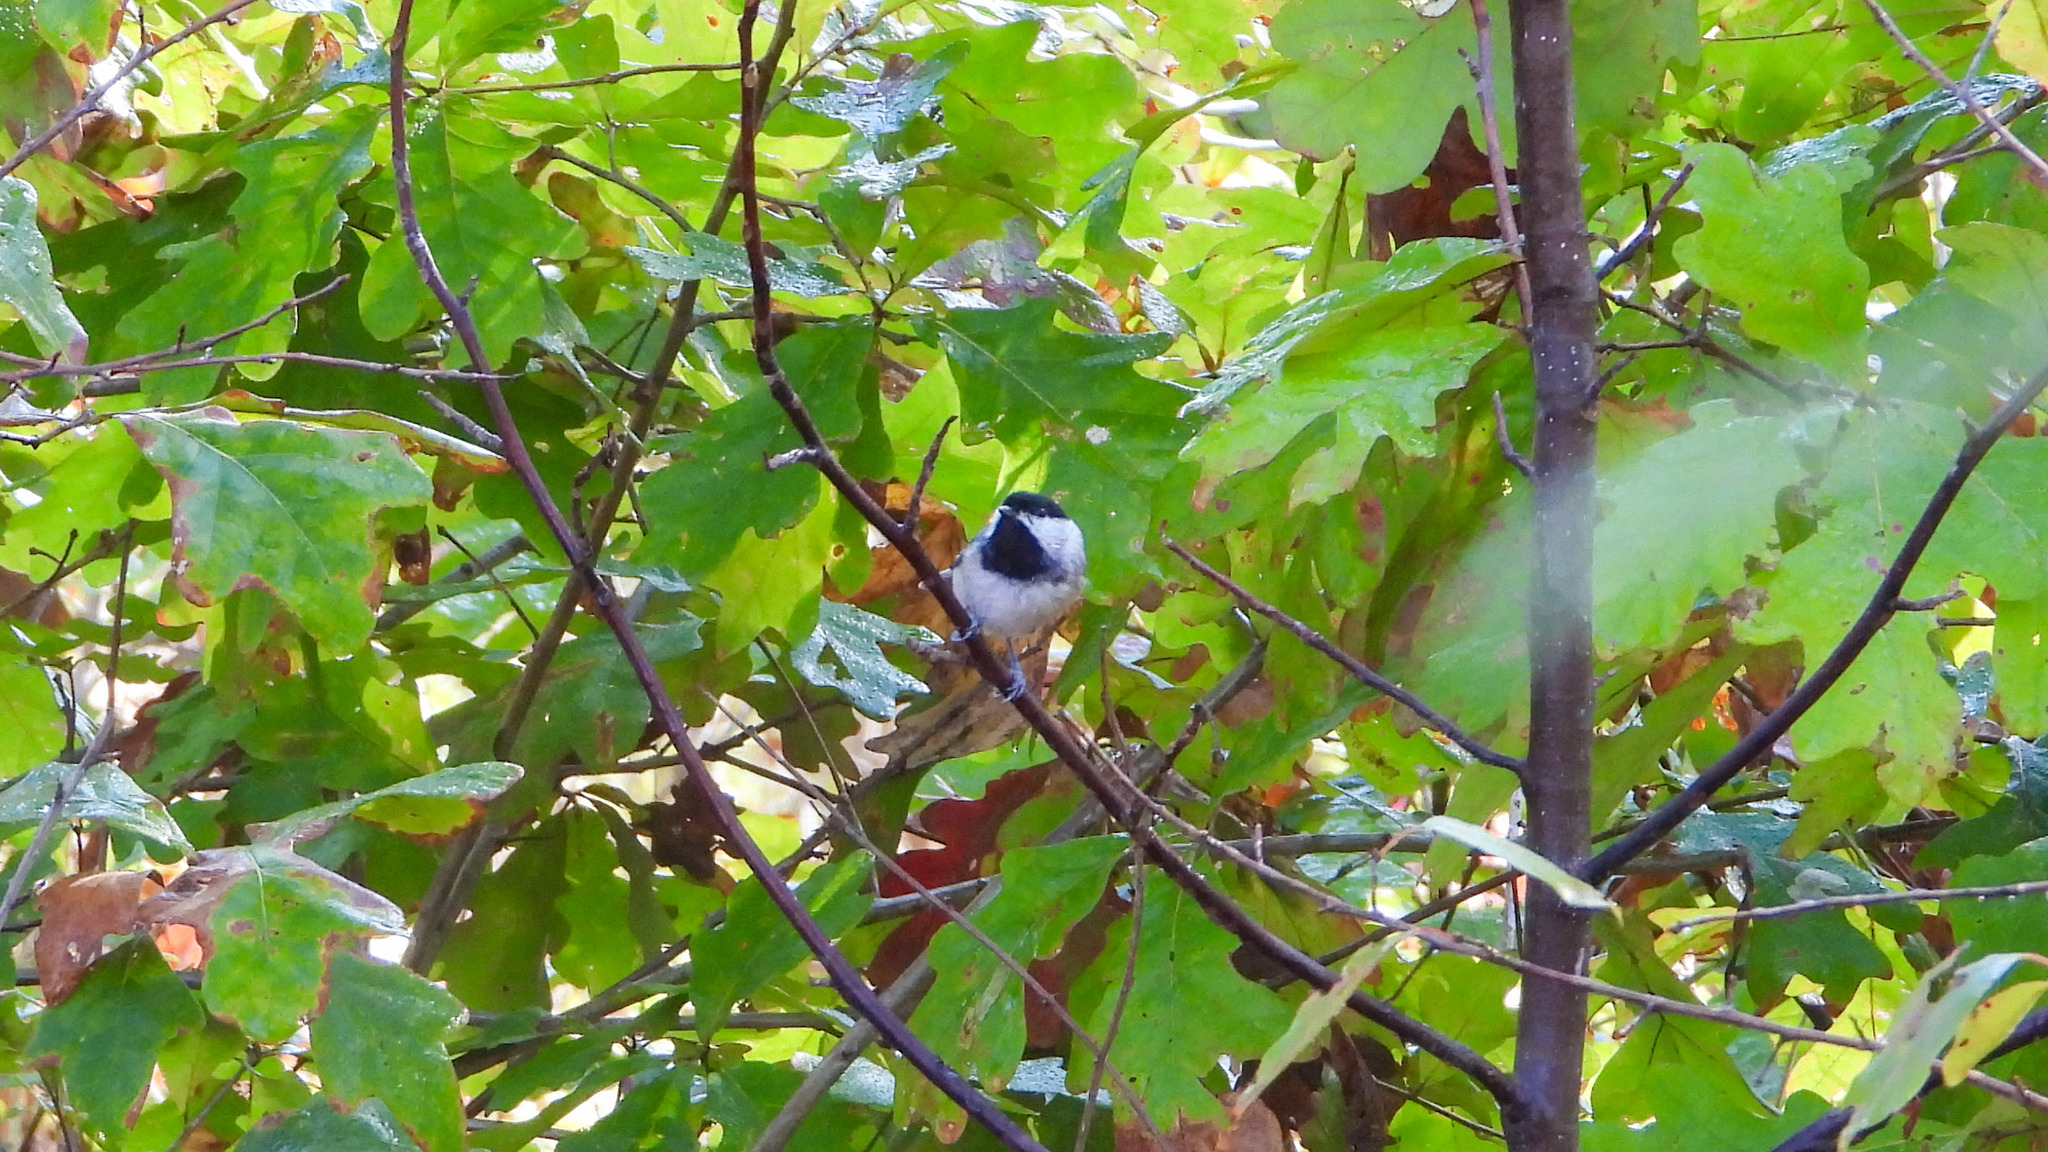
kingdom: Animalia
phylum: Chordata
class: Aves
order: Passeriformes
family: Paridae
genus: Poecile
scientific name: Poecile carolinensis
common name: Carolina chickadee
